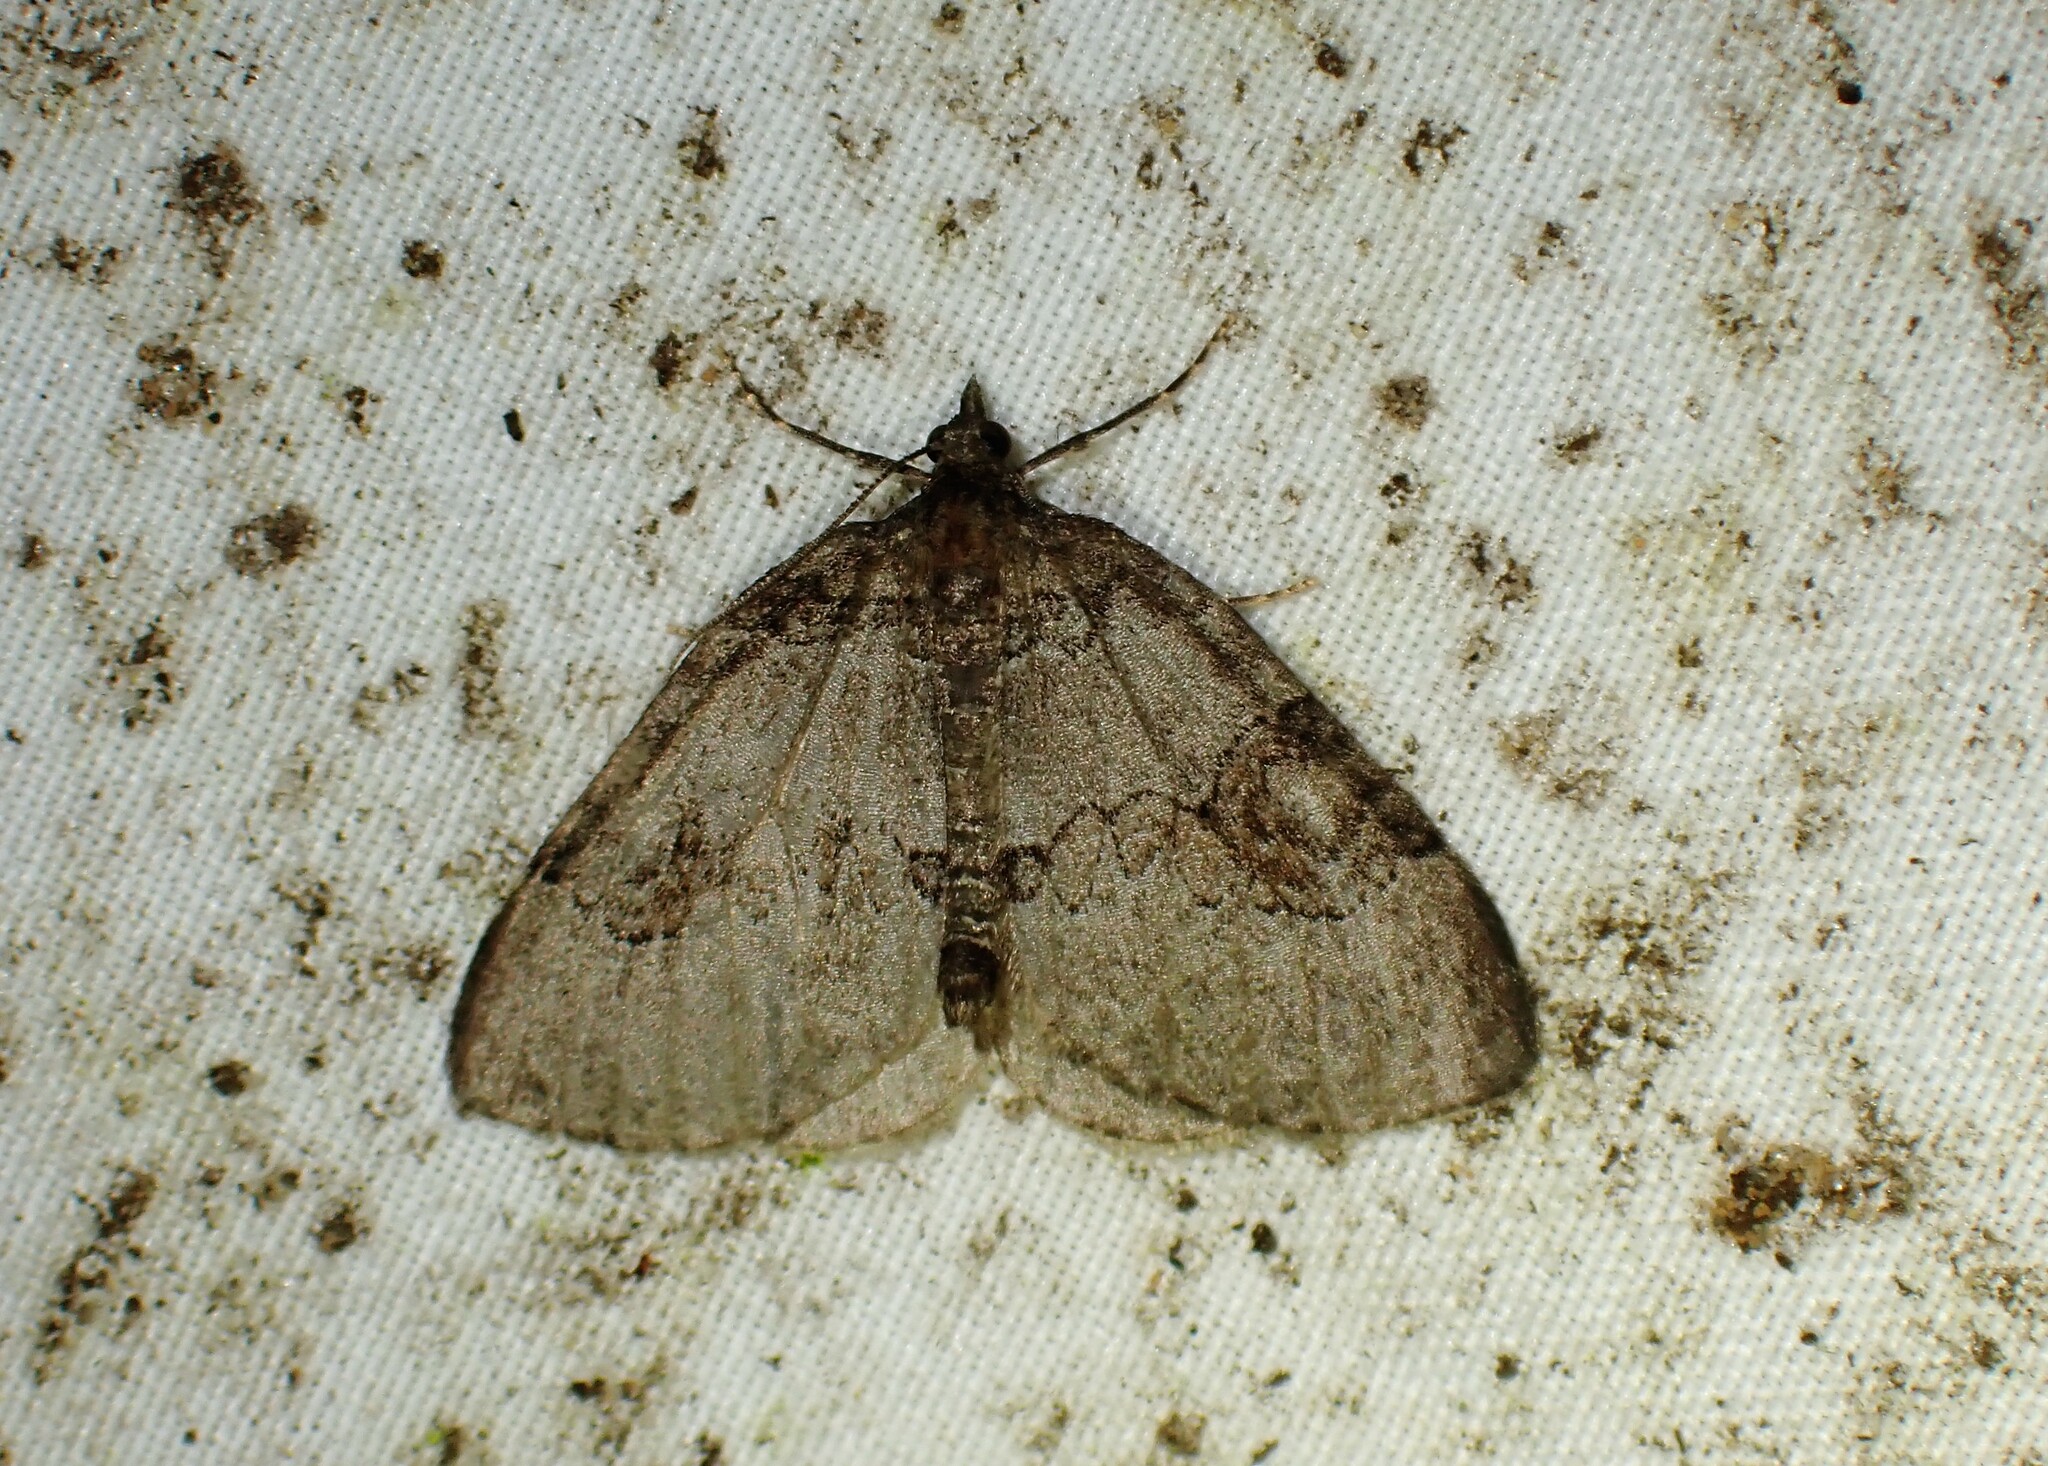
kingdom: Animalia
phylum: Arthropoda
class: Insecta
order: Lepidoptera
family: Geometridae
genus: Plemyria
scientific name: Plemyria georgii
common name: George's carpet moth
